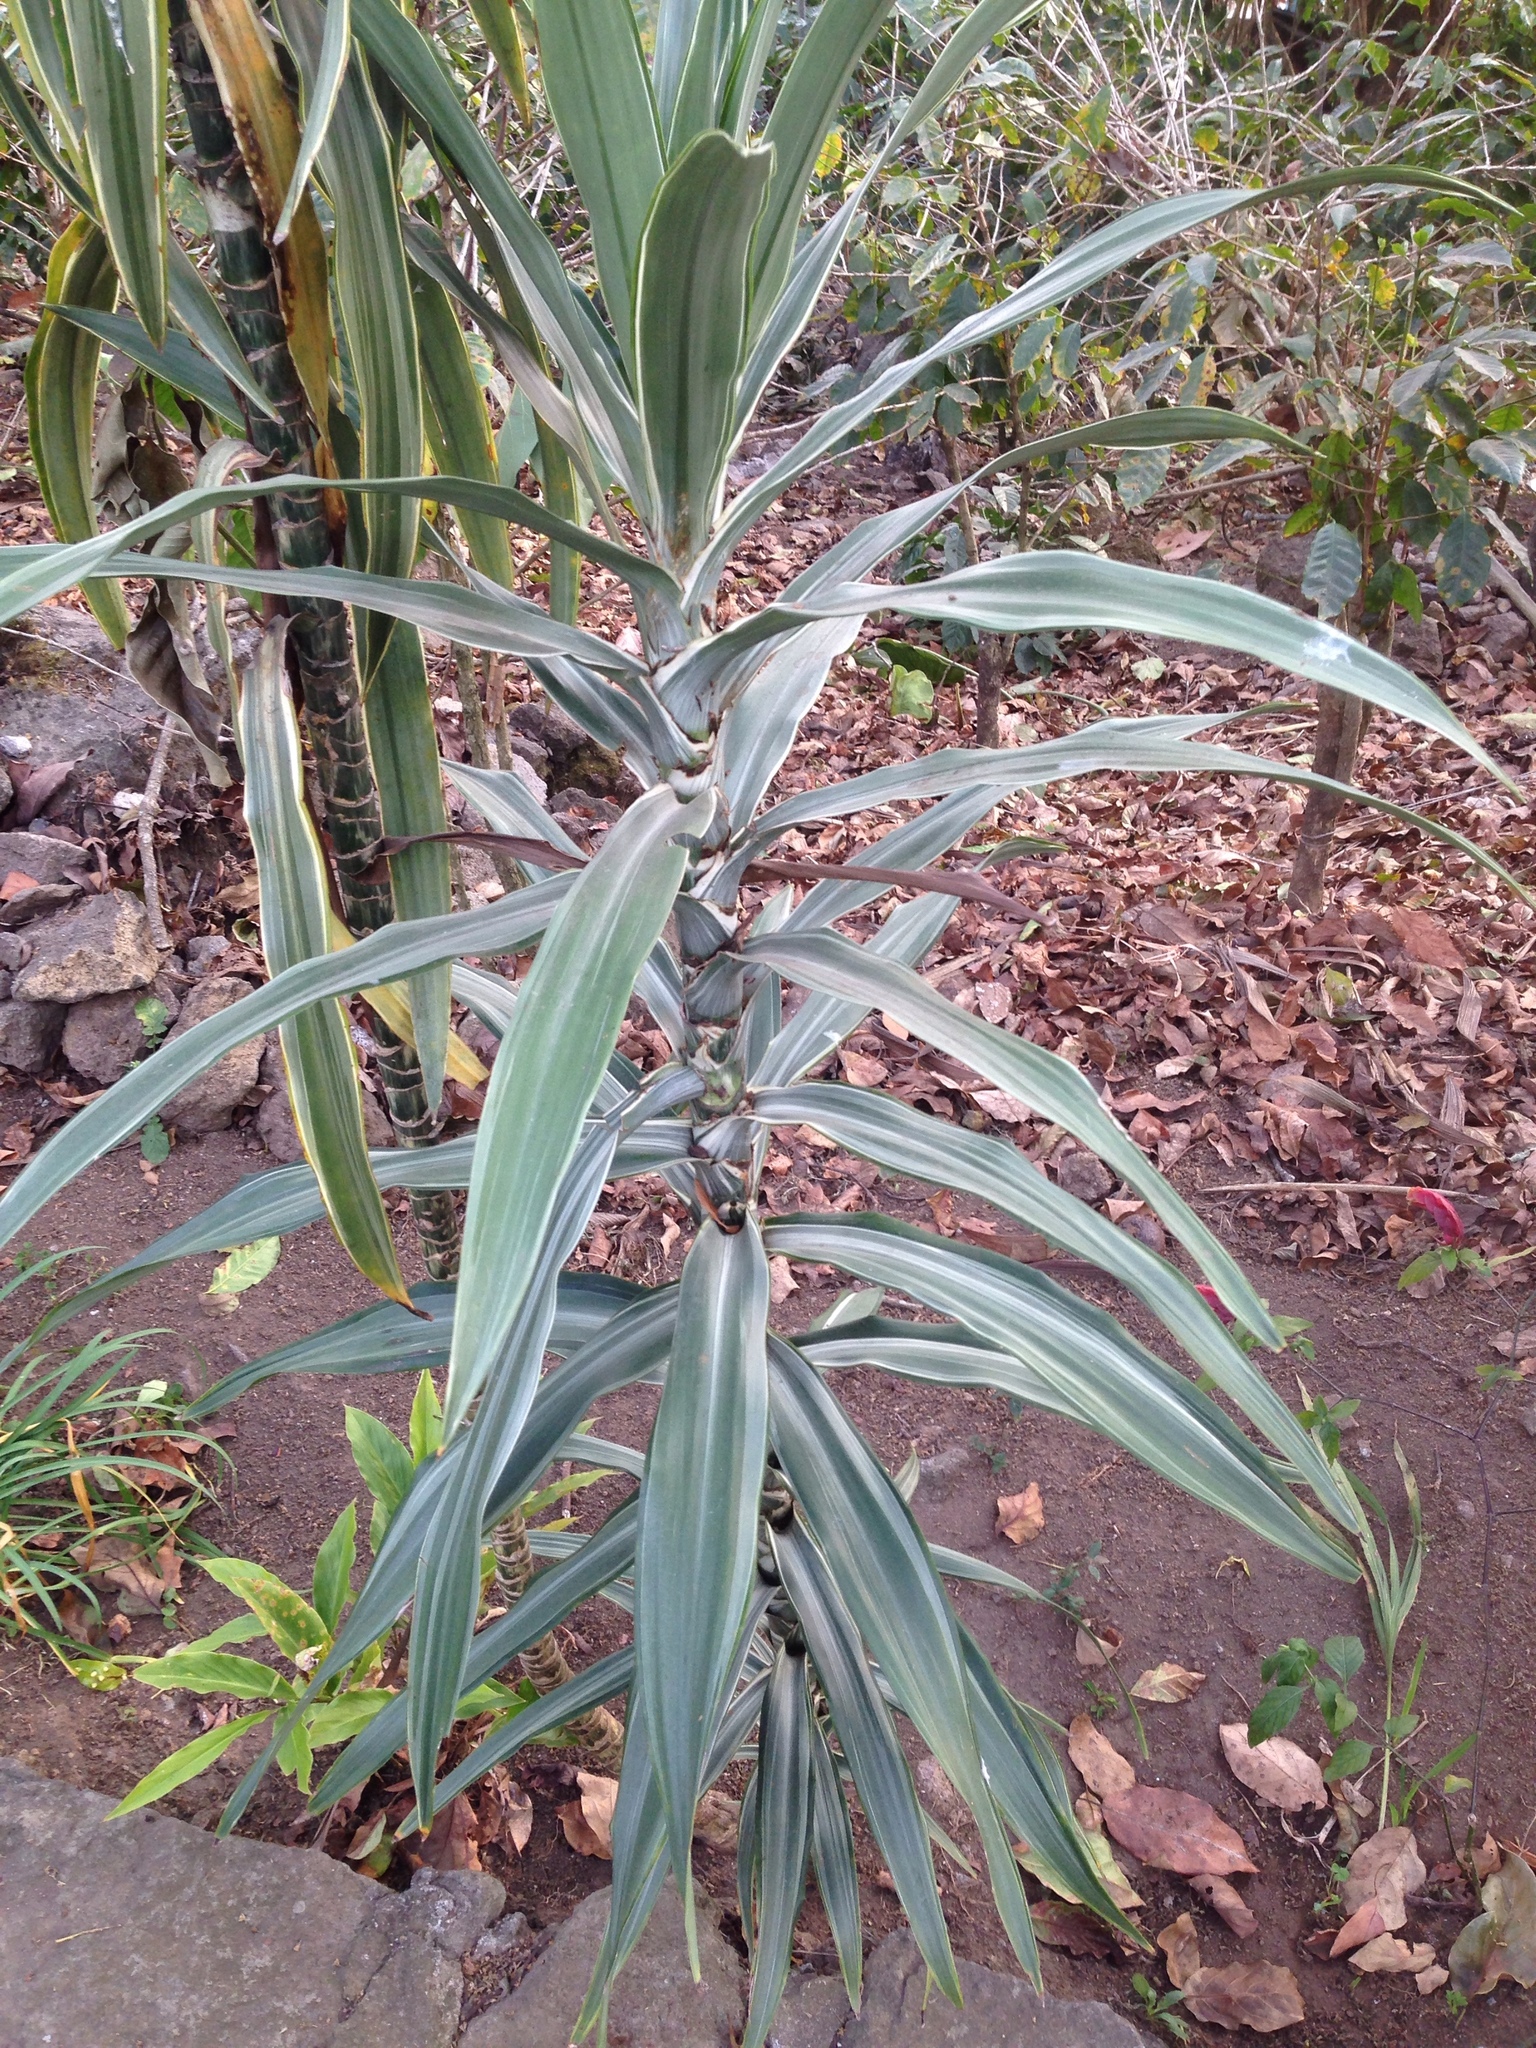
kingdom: Plantae
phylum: Tracheophyta
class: Liliopsida
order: Asparagales
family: Asparagaceae
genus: Dracaena
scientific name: Dracaena fragrans
